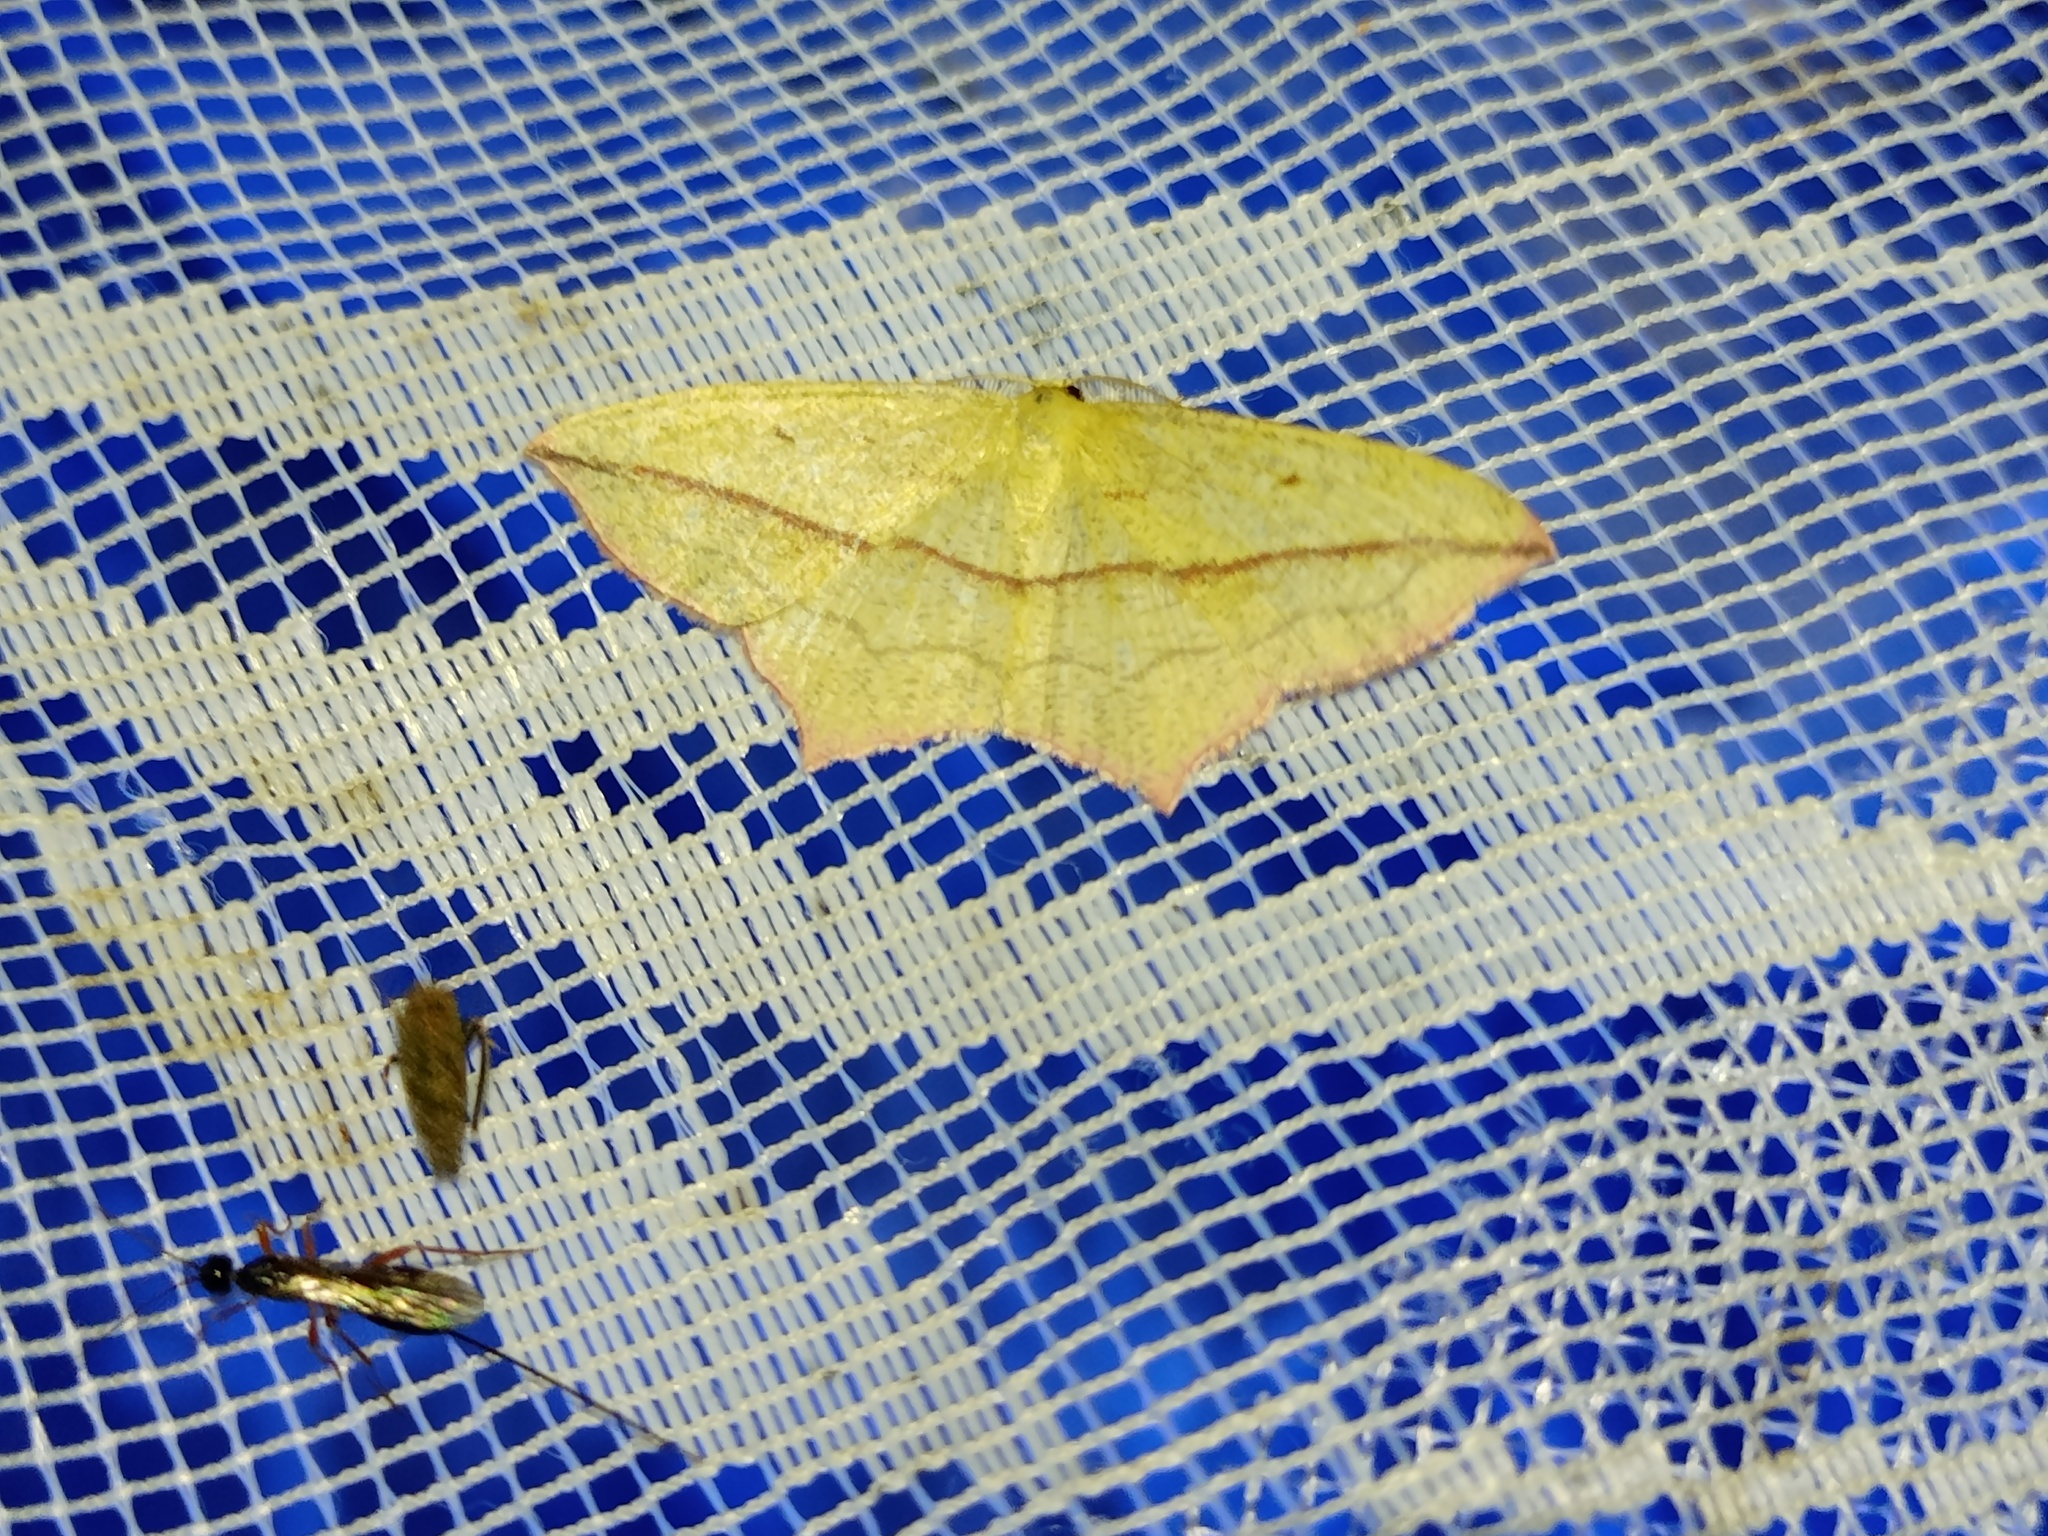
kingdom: Animalia
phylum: Arthropoda
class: Insecta
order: Lepidoptera
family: Geometridae
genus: Timandra
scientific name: Timandra comae
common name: Blood-vein
